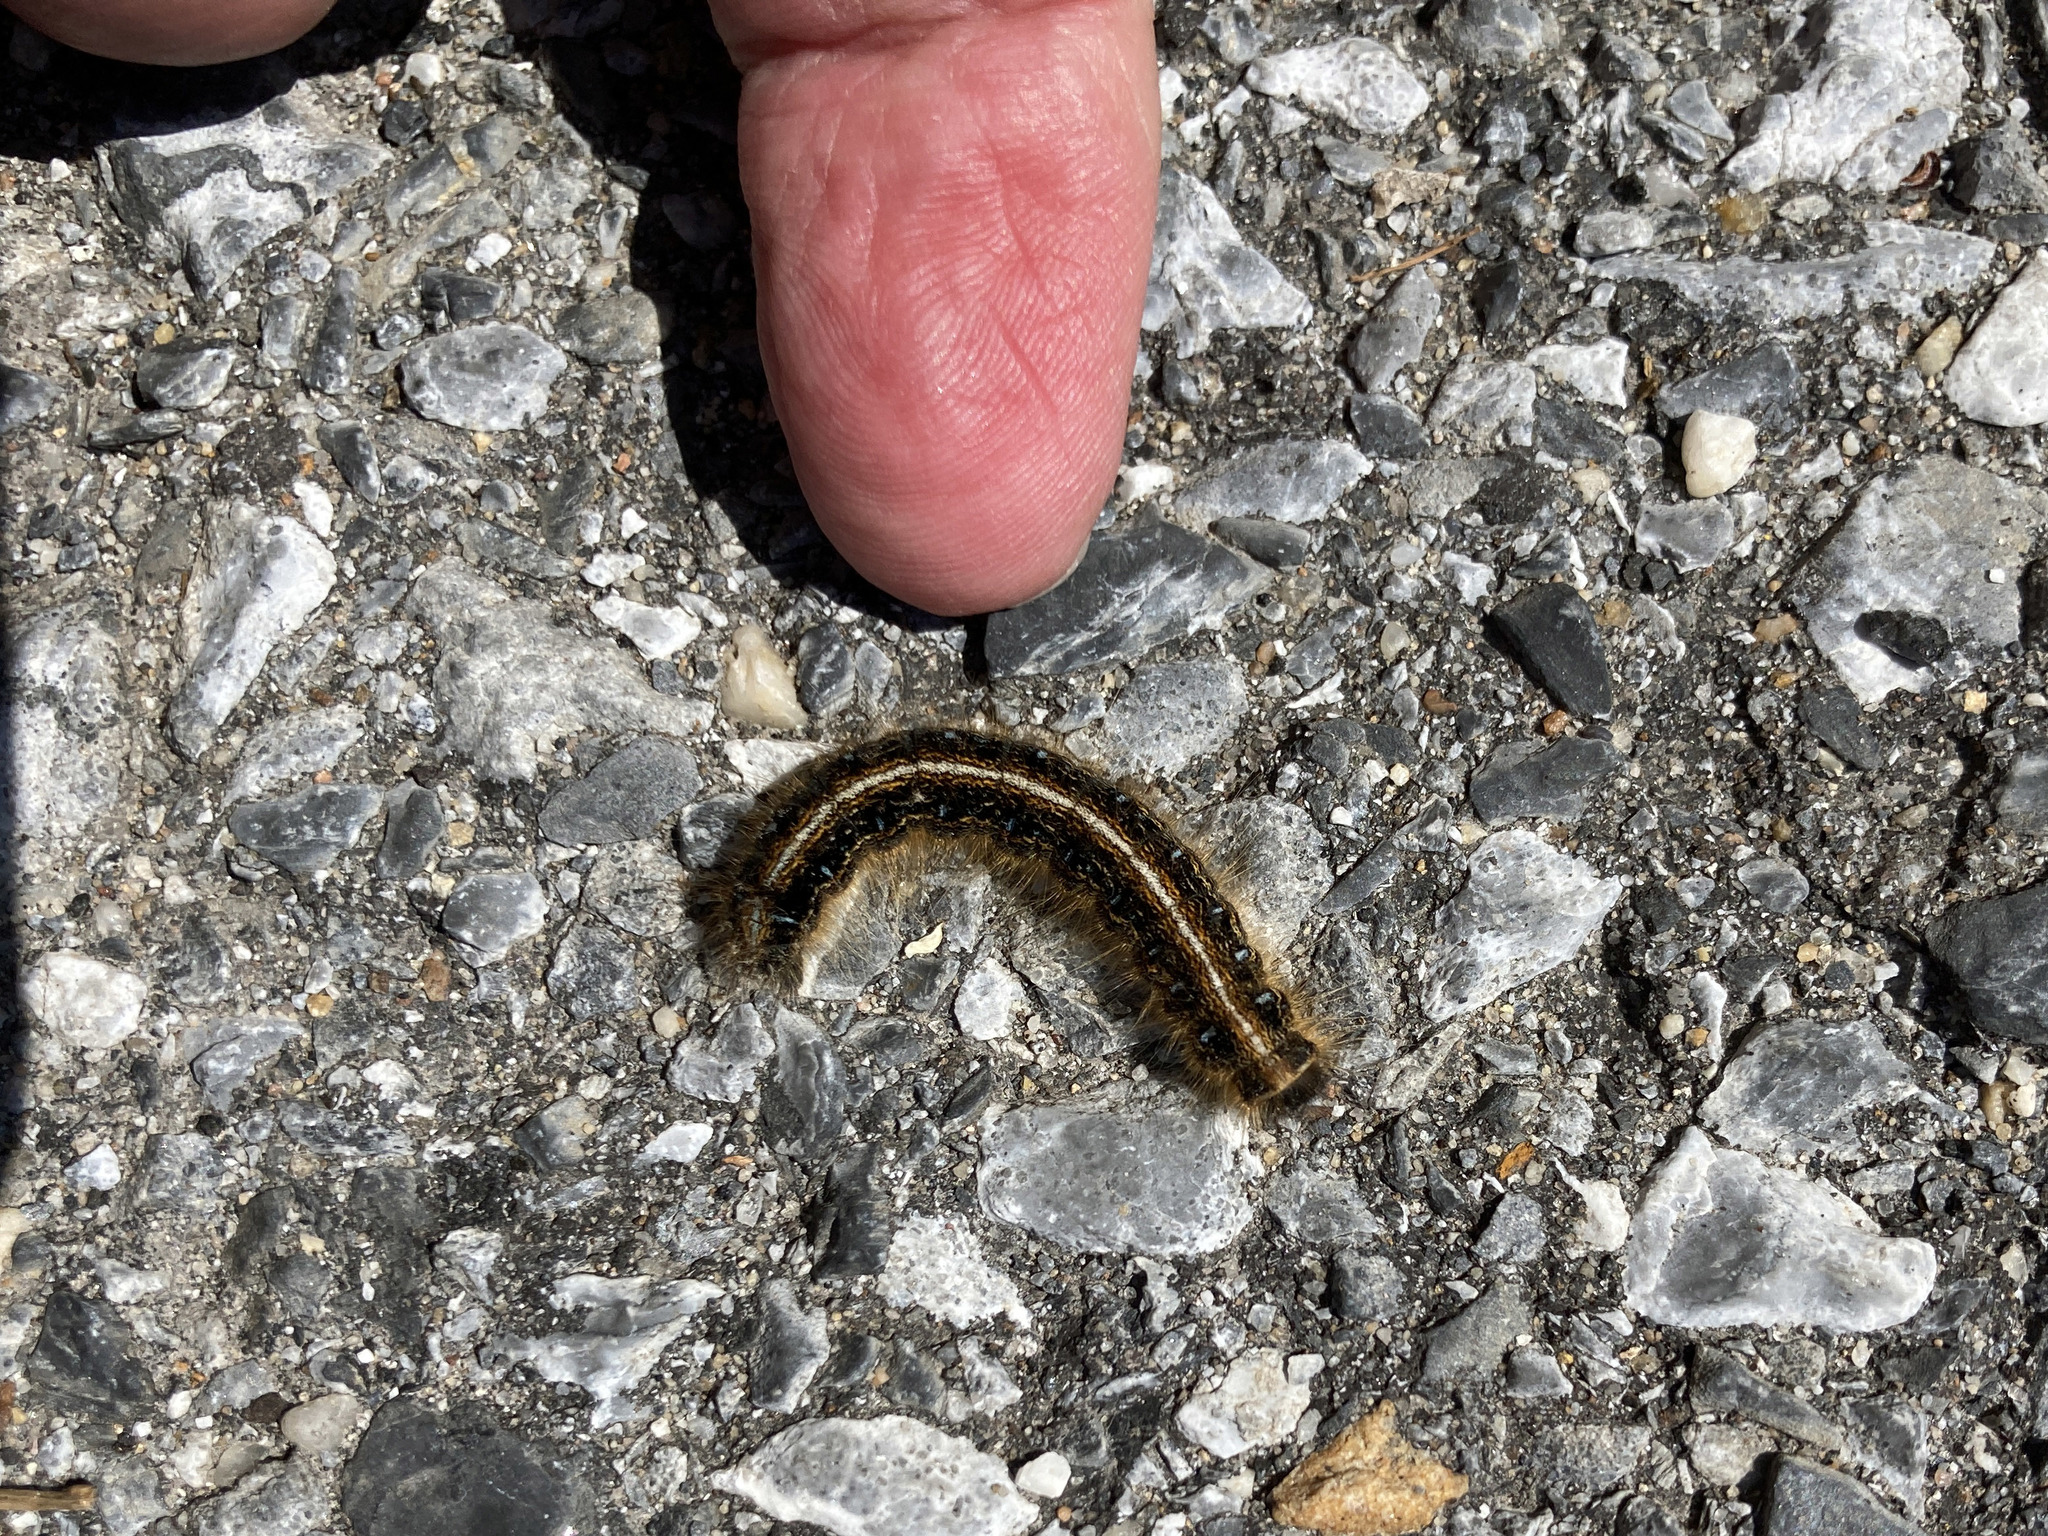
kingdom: Animalia
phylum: Arthropoda
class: Insecta
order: Lepidoptera
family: Lasiocampidae
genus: Malacosoma
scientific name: Malacosoma americana
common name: Eastern tent caterpillar moth
